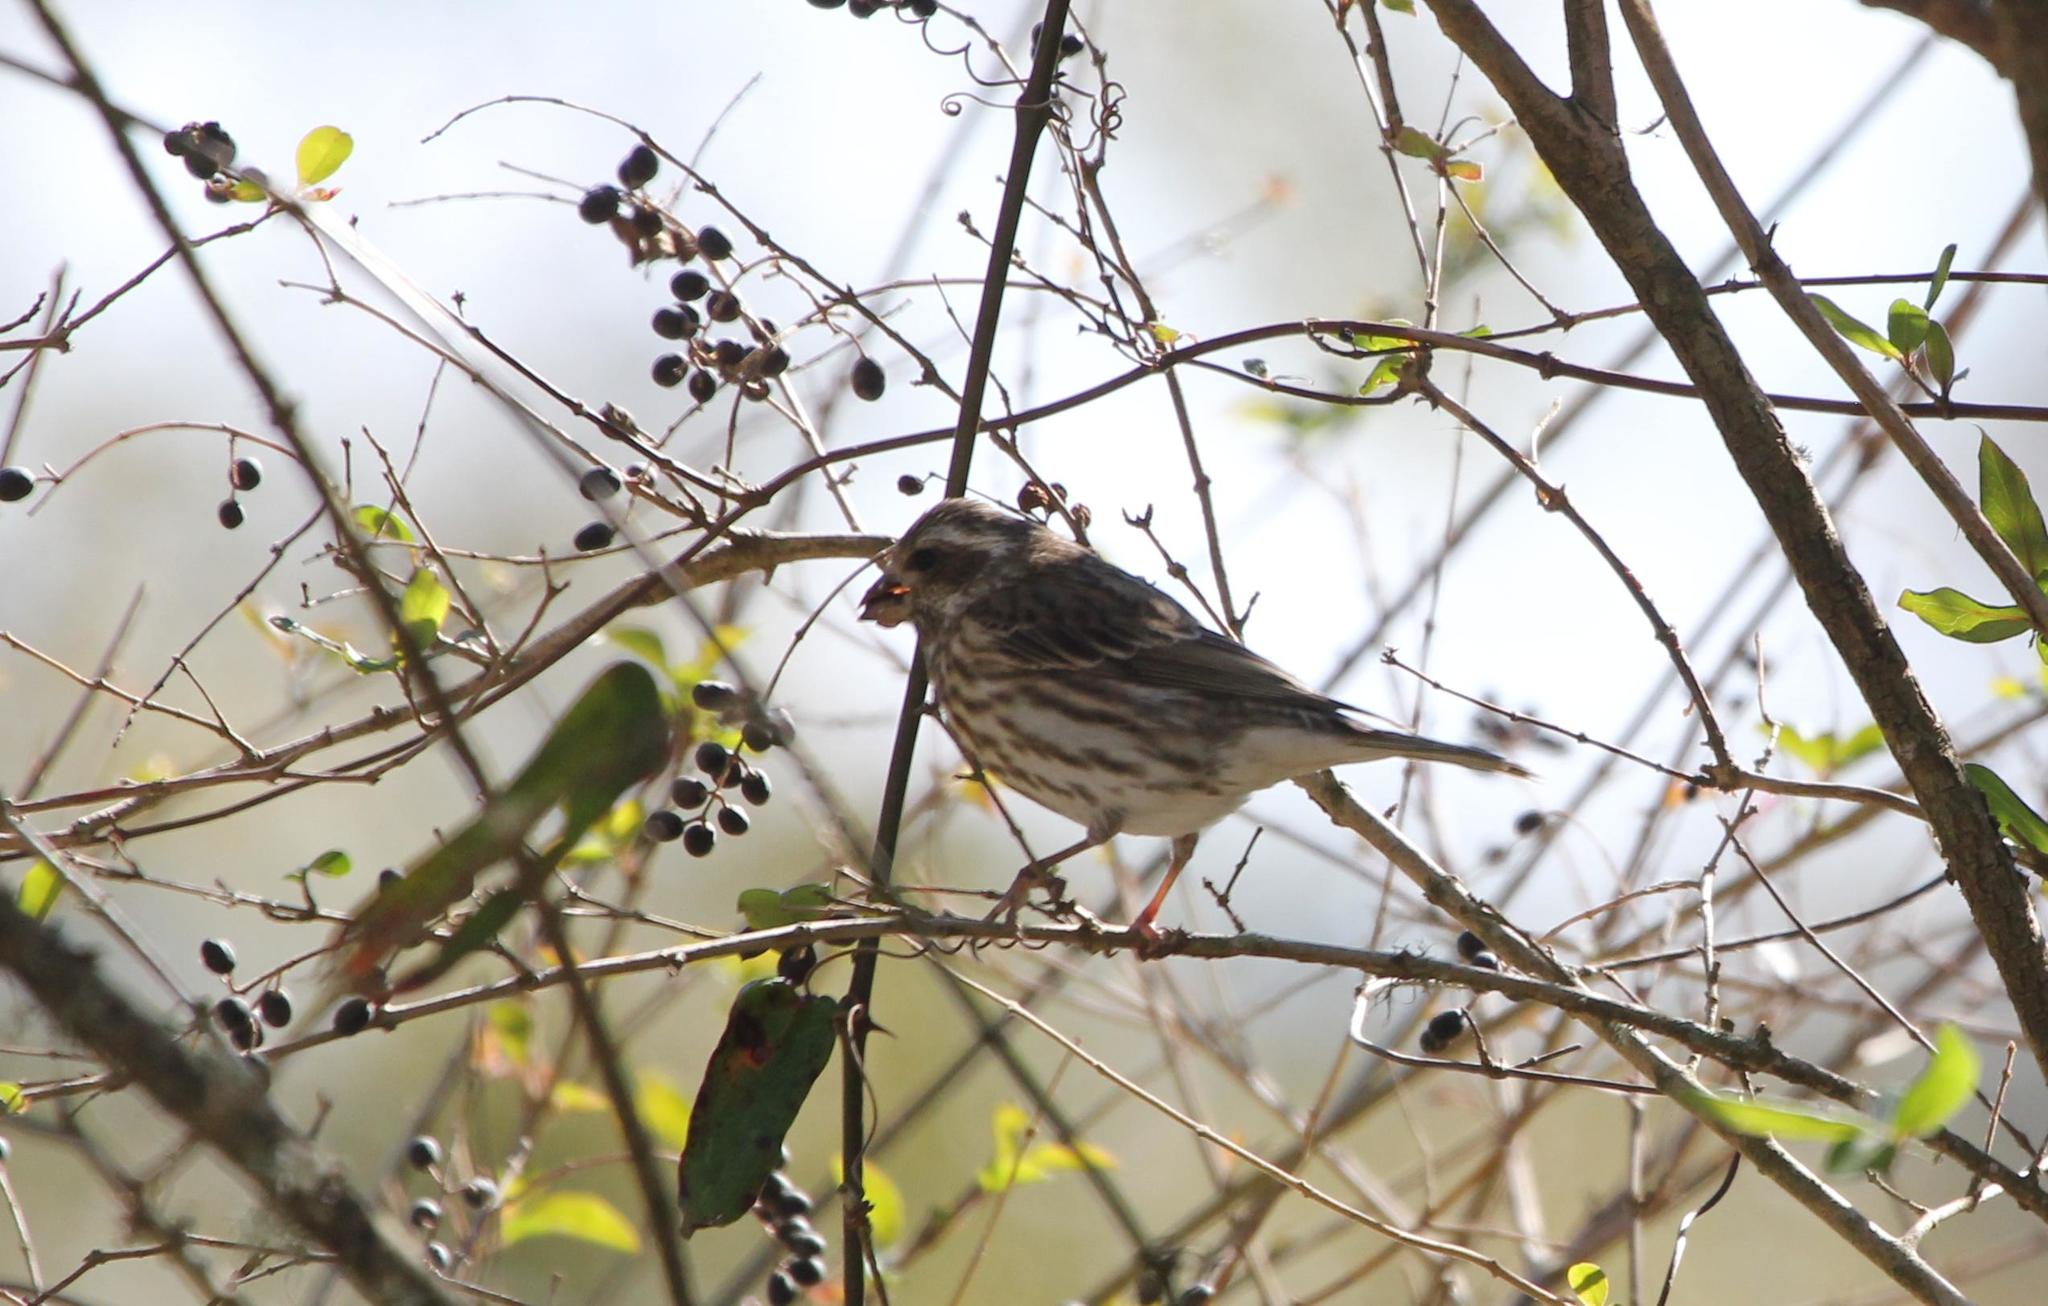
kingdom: Animalia
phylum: Chordata
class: Aves
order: Passeriformes
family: Fringillidae
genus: Haemorhous
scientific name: Haemorhous purpureus
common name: Purple finch
